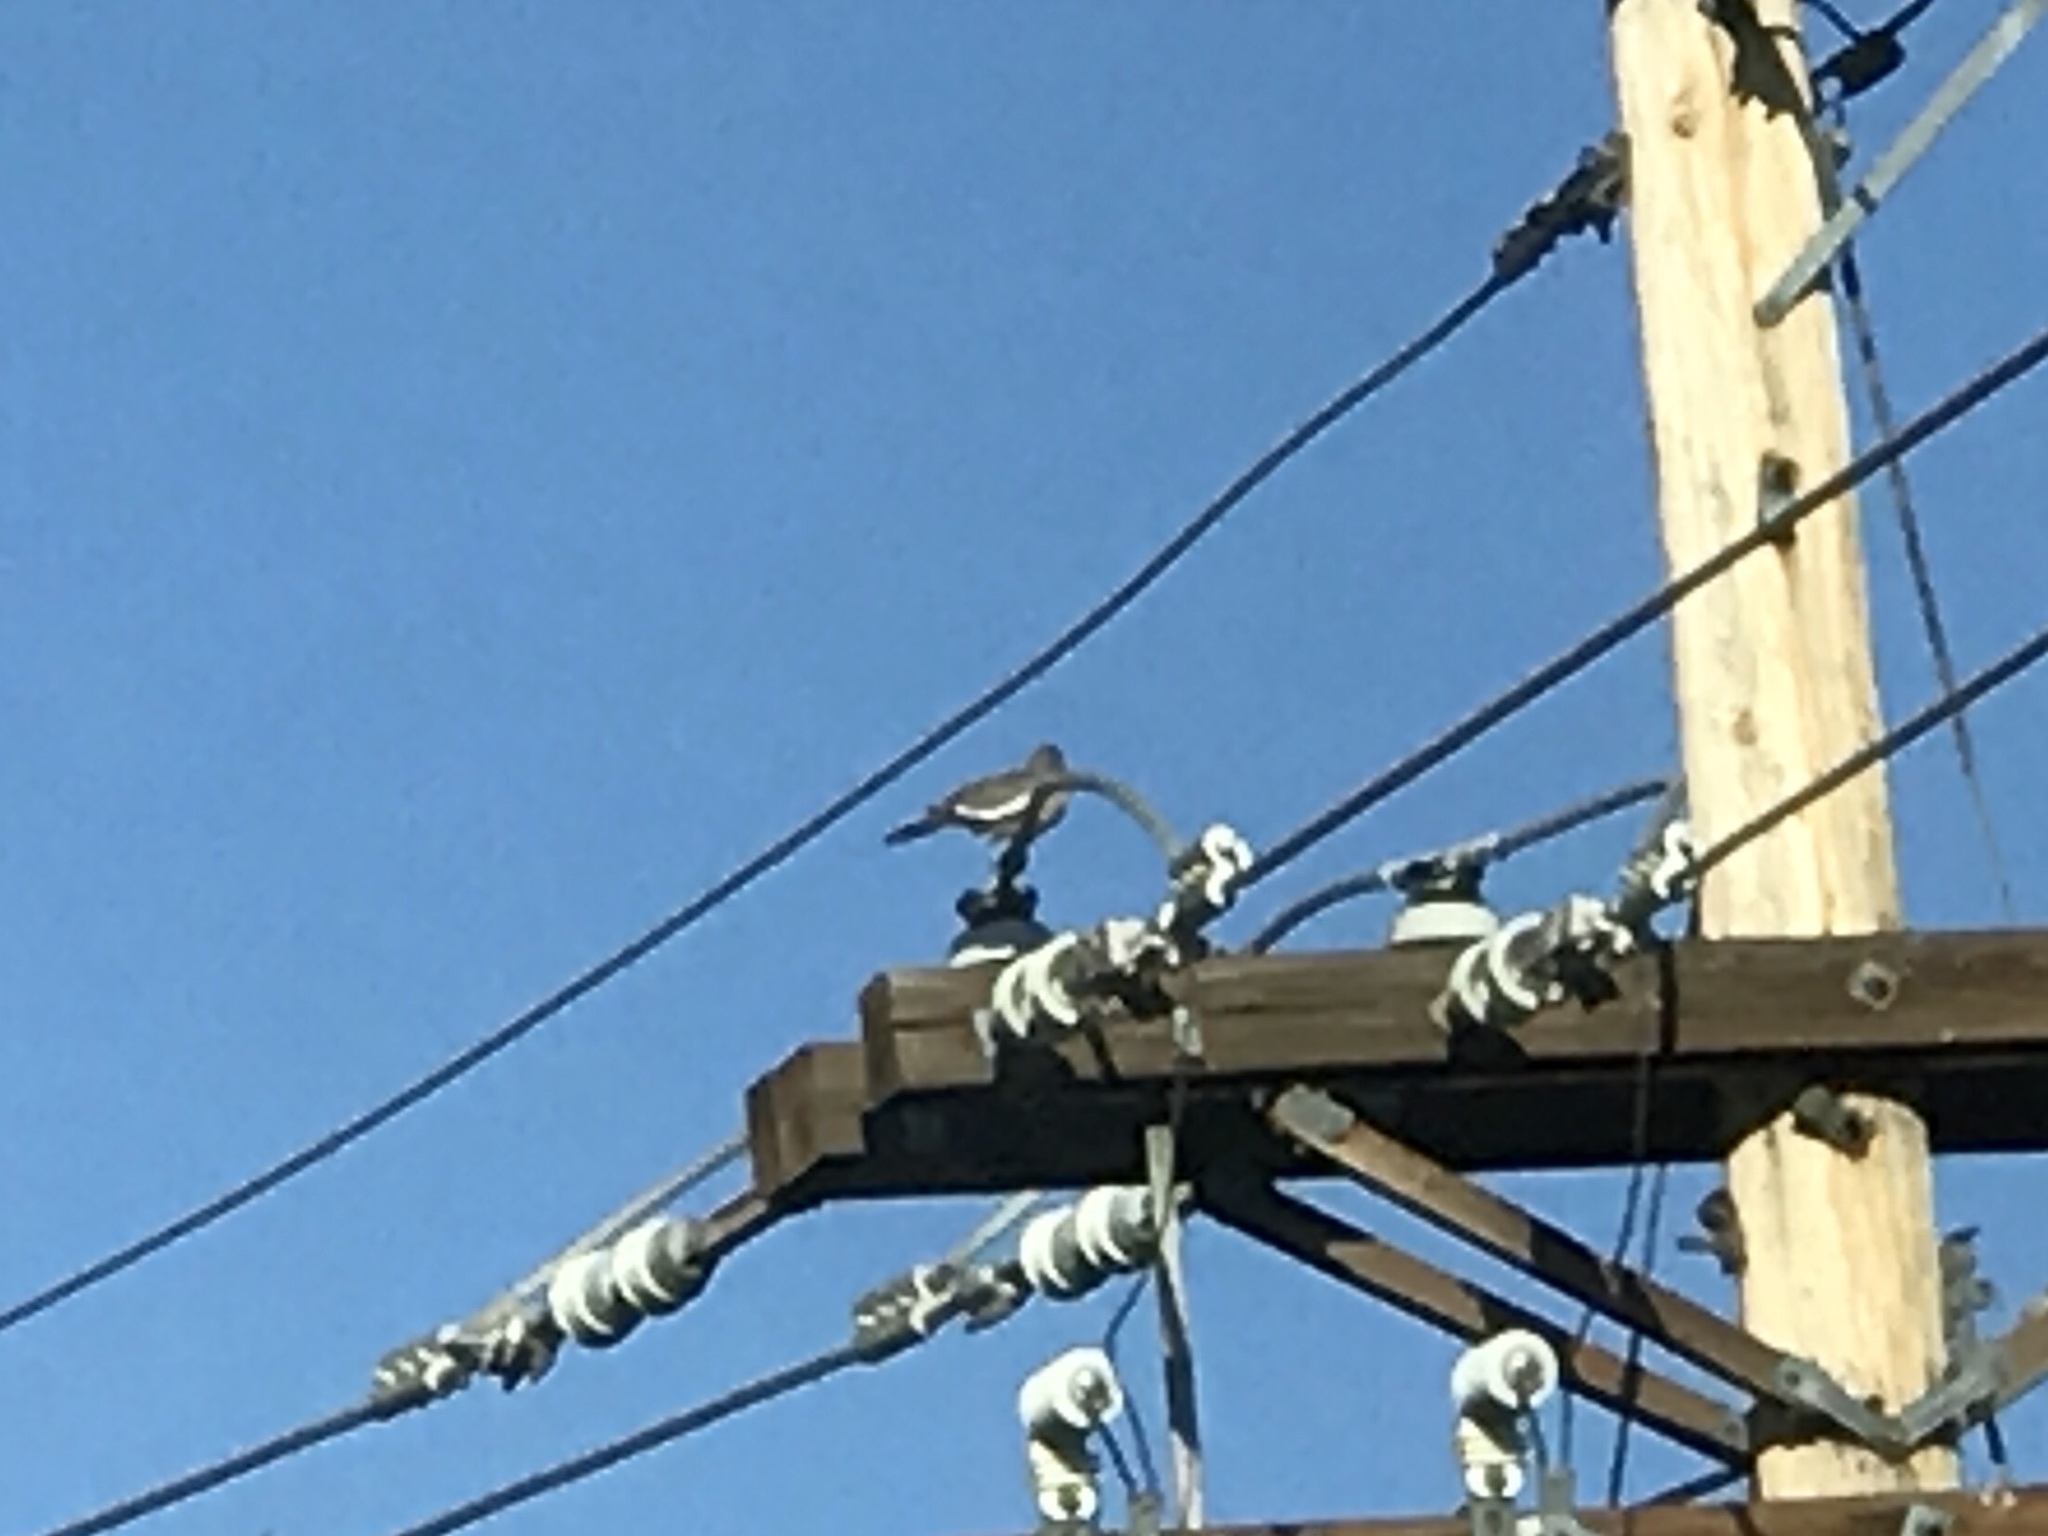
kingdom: Animalia
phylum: Chordata
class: Aves
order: Columbiformes
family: Columbidae
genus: Zenaida
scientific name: Zenaida asiatica
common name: White-winged dove
